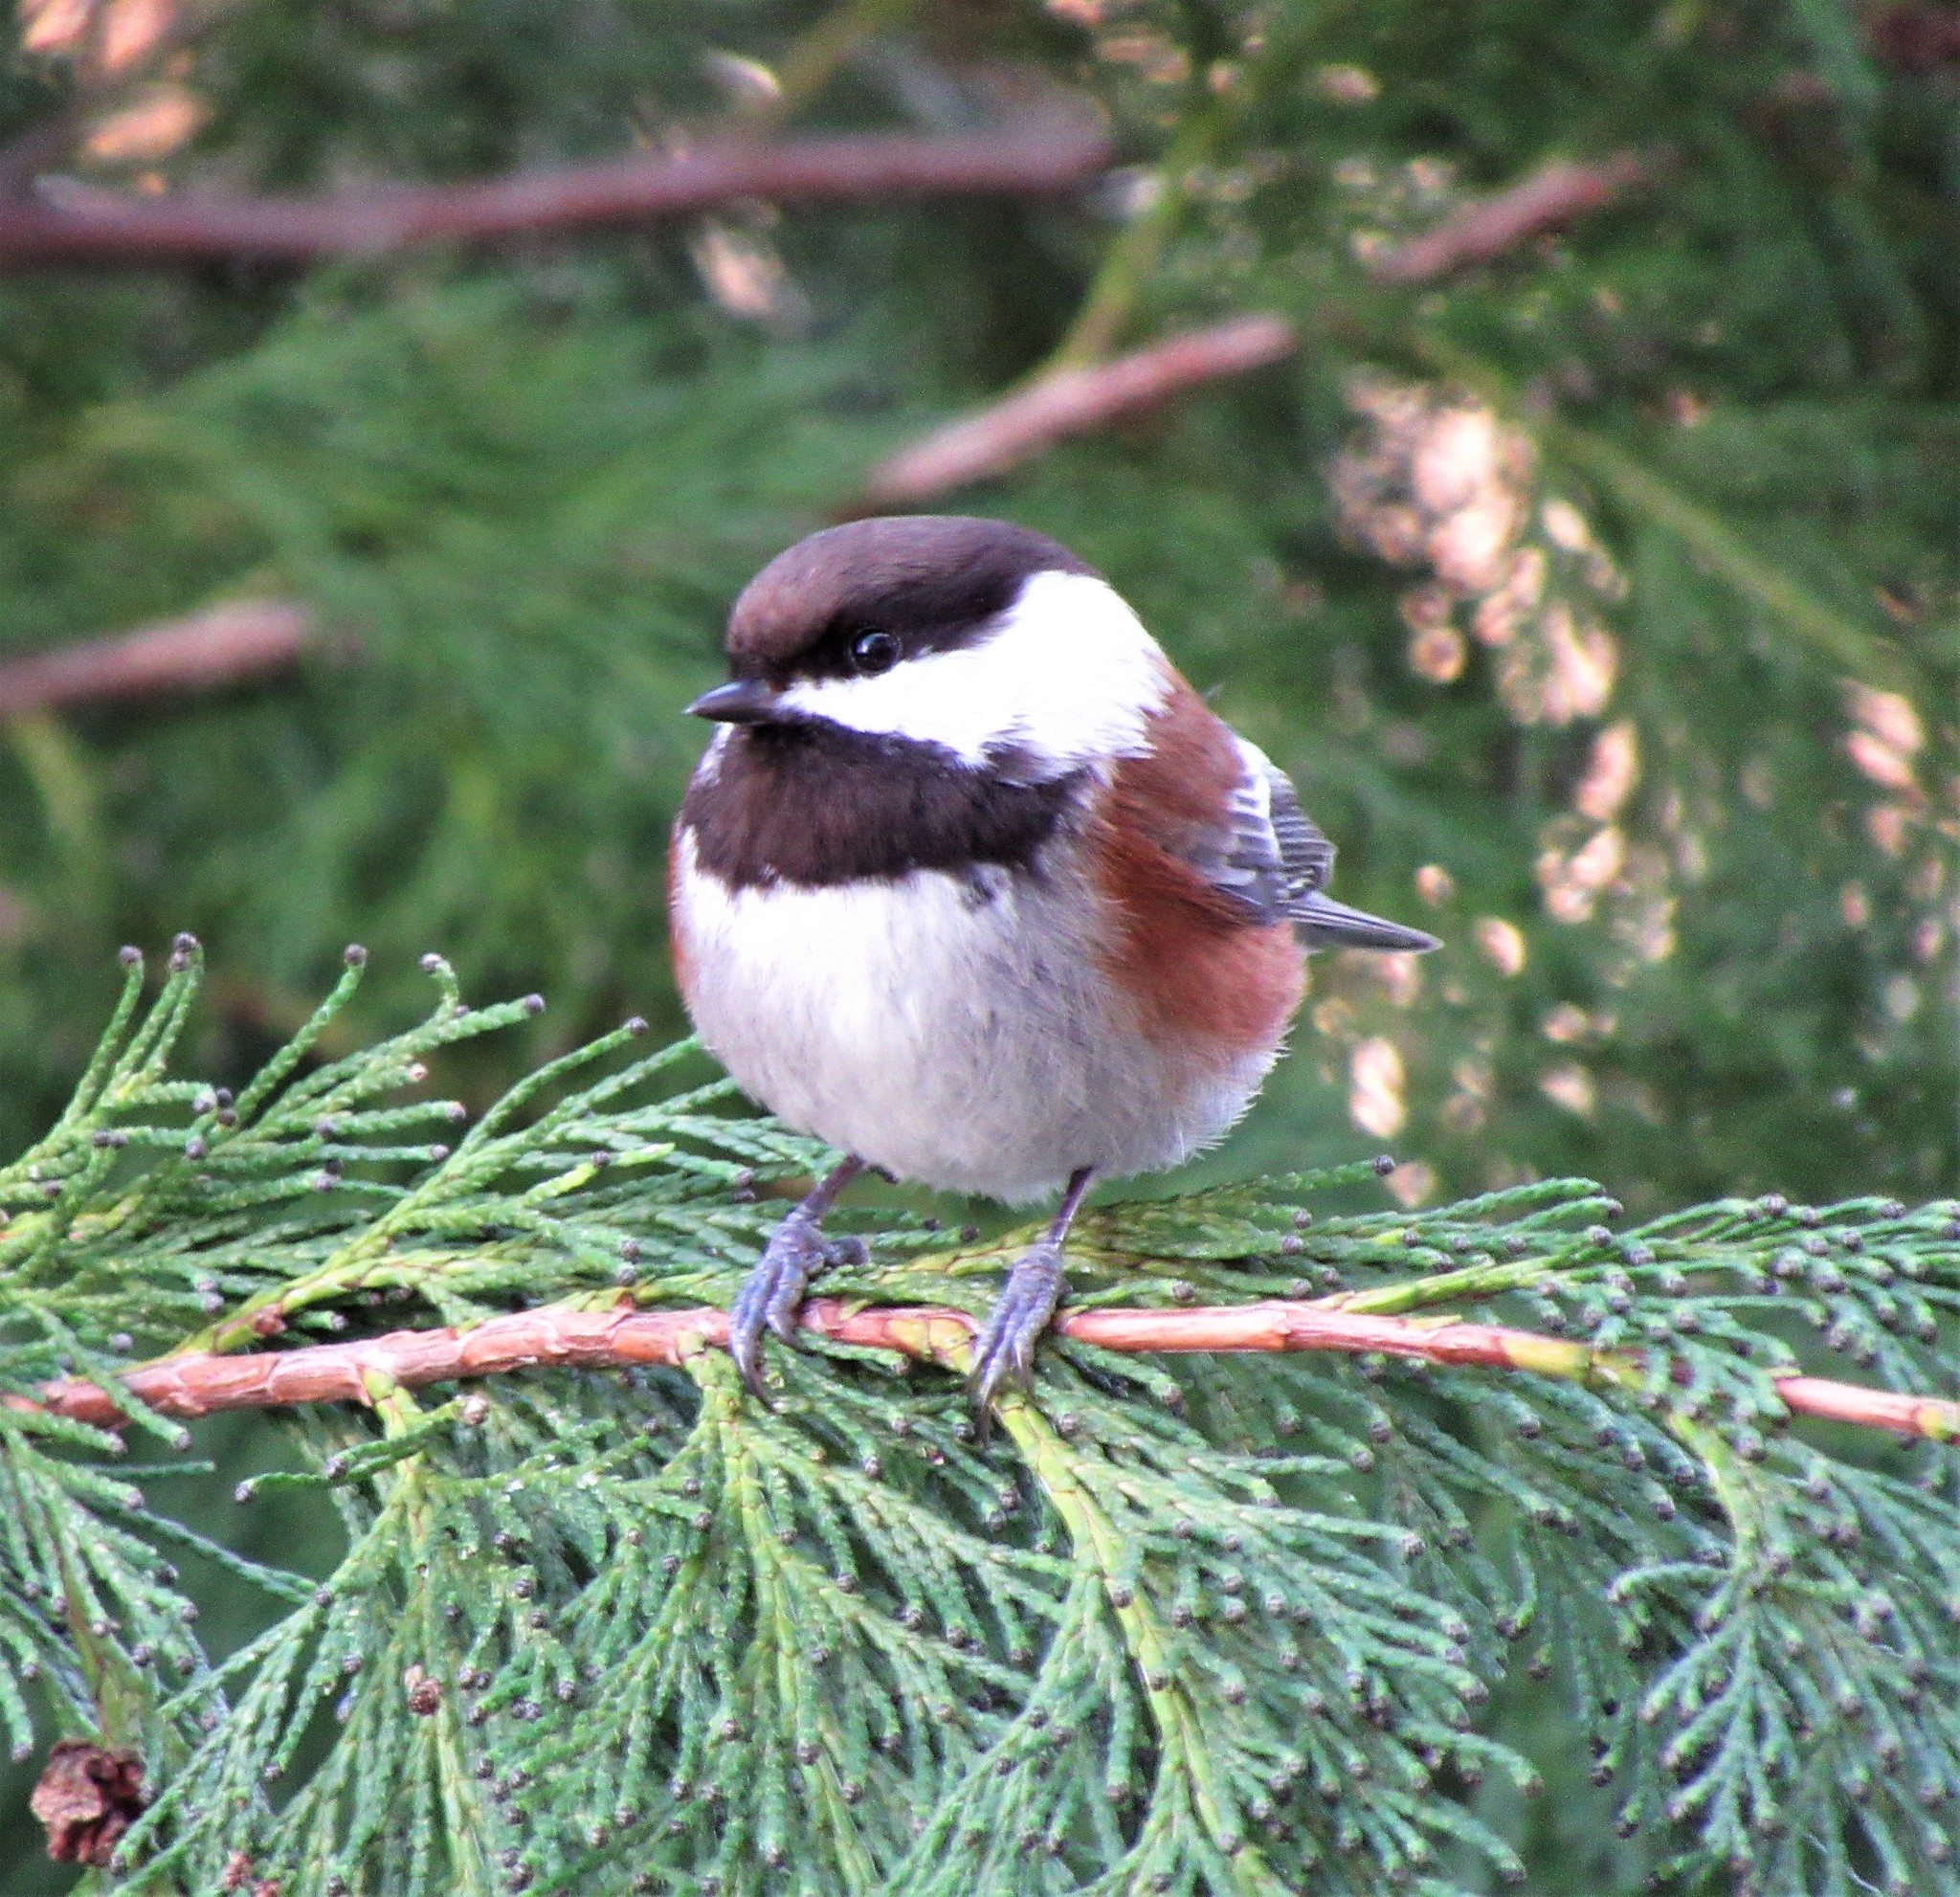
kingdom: Animalia
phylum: Chordata
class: Aves
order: Passeriformes
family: Paridae
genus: Poecile
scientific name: Poecile rufescens
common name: Chestnut-backed chickadee
